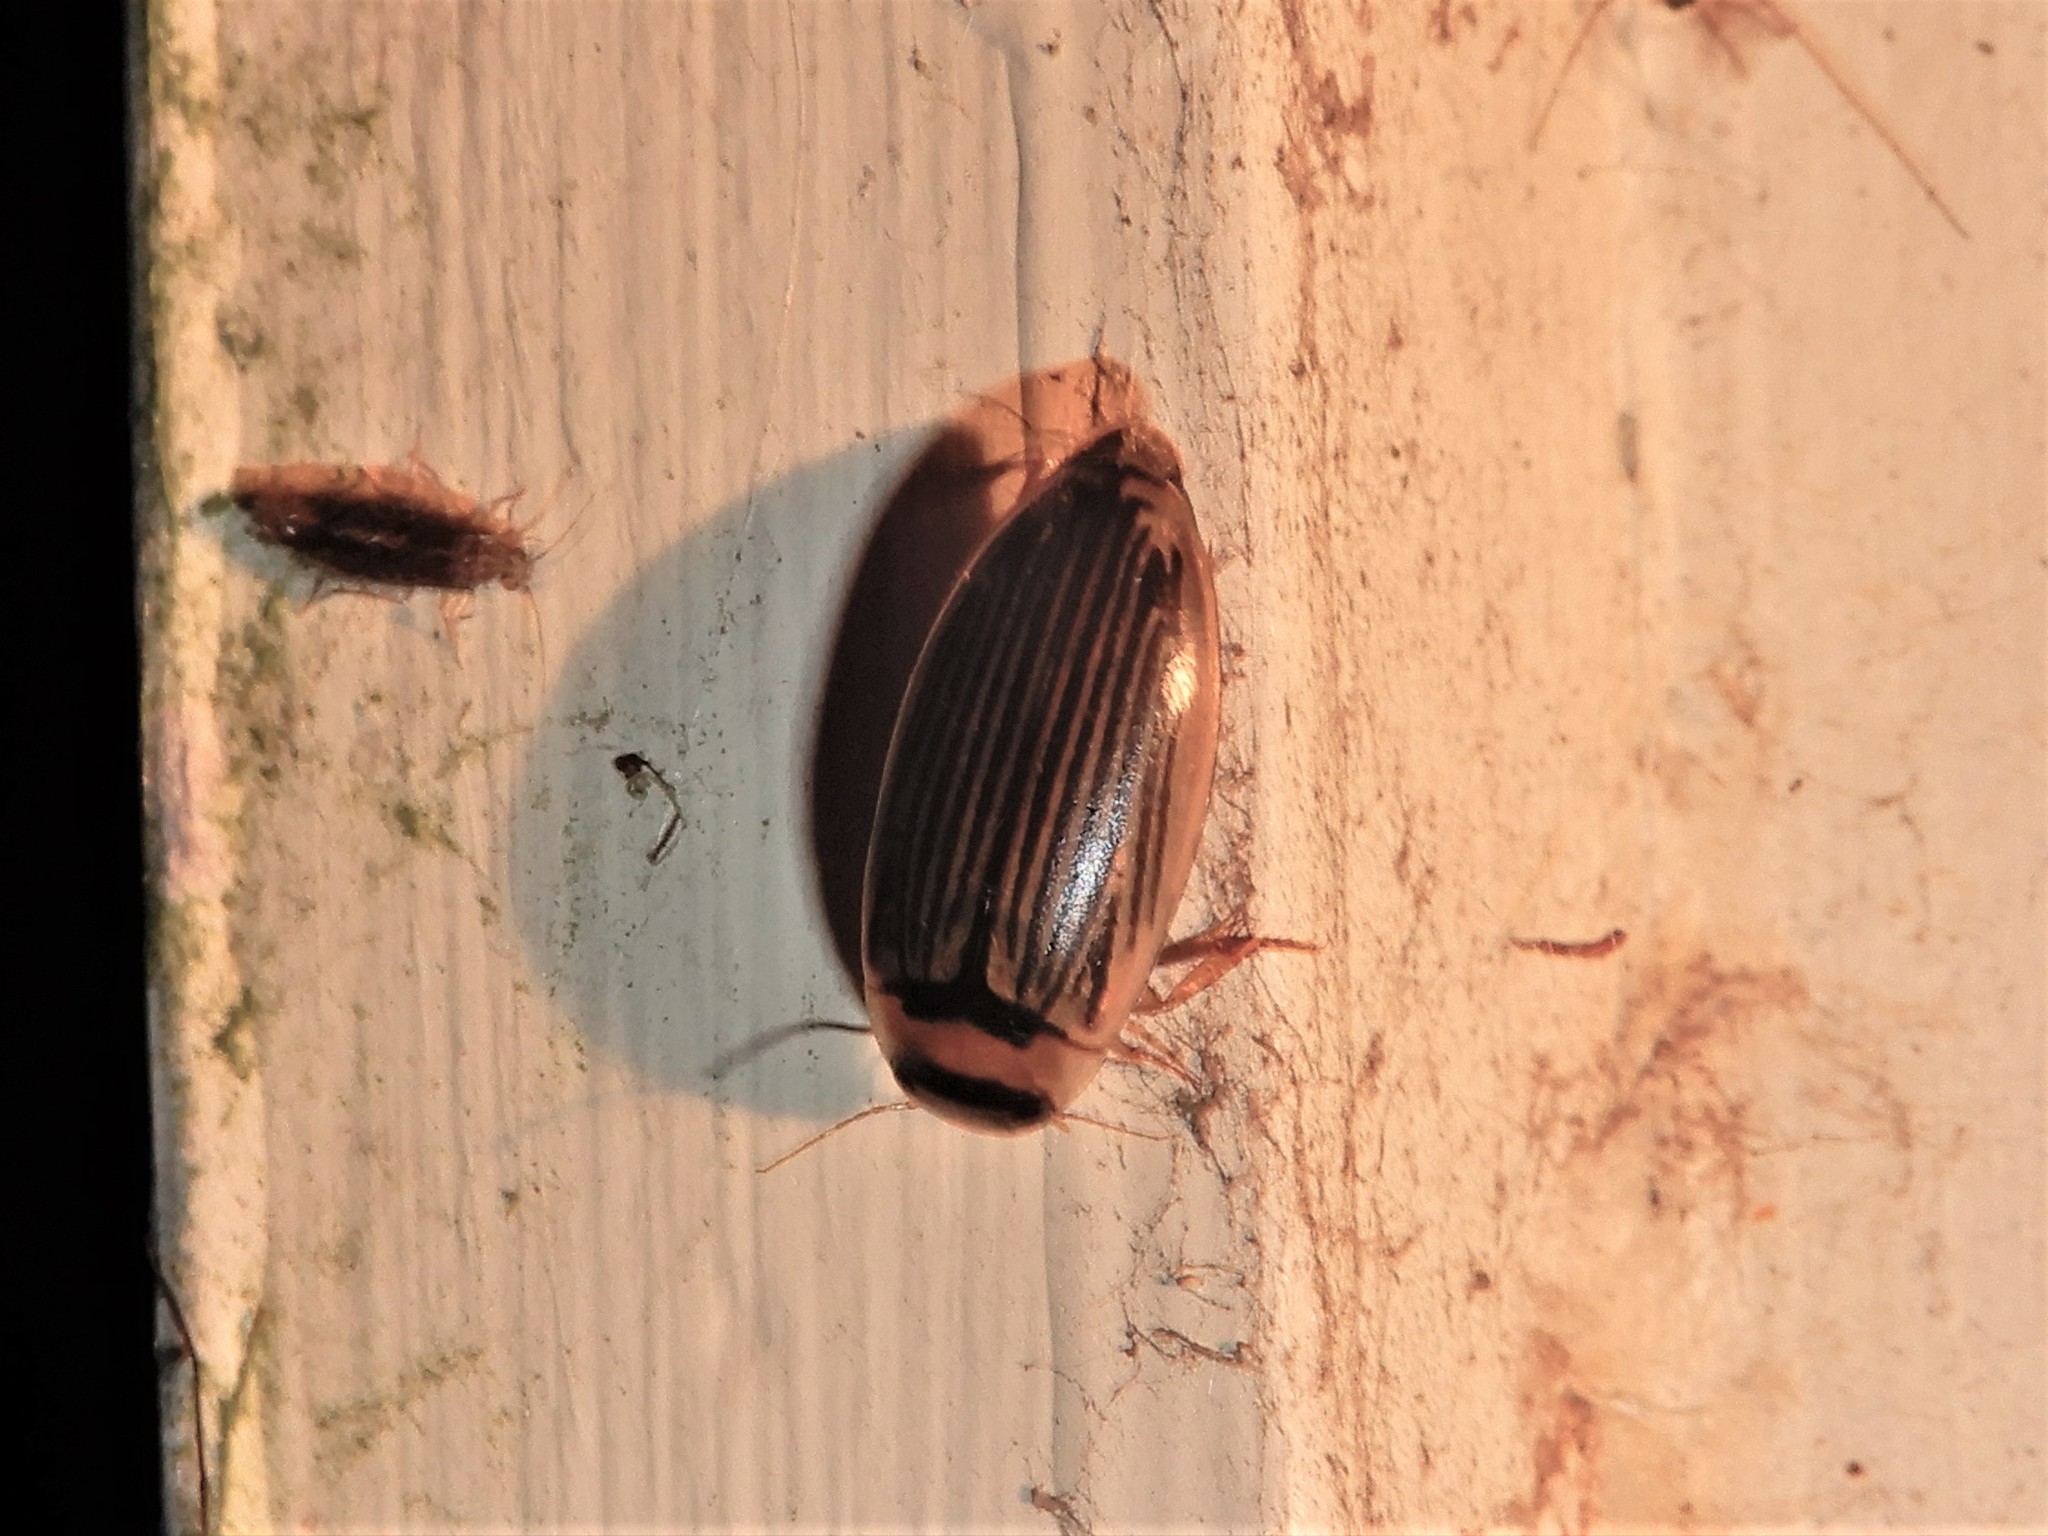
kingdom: Animalia
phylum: Arthropoda
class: Insecta
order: Coleoptera
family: Dytiscidae
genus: Lancetes
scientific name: Lancetes lanceolatus
